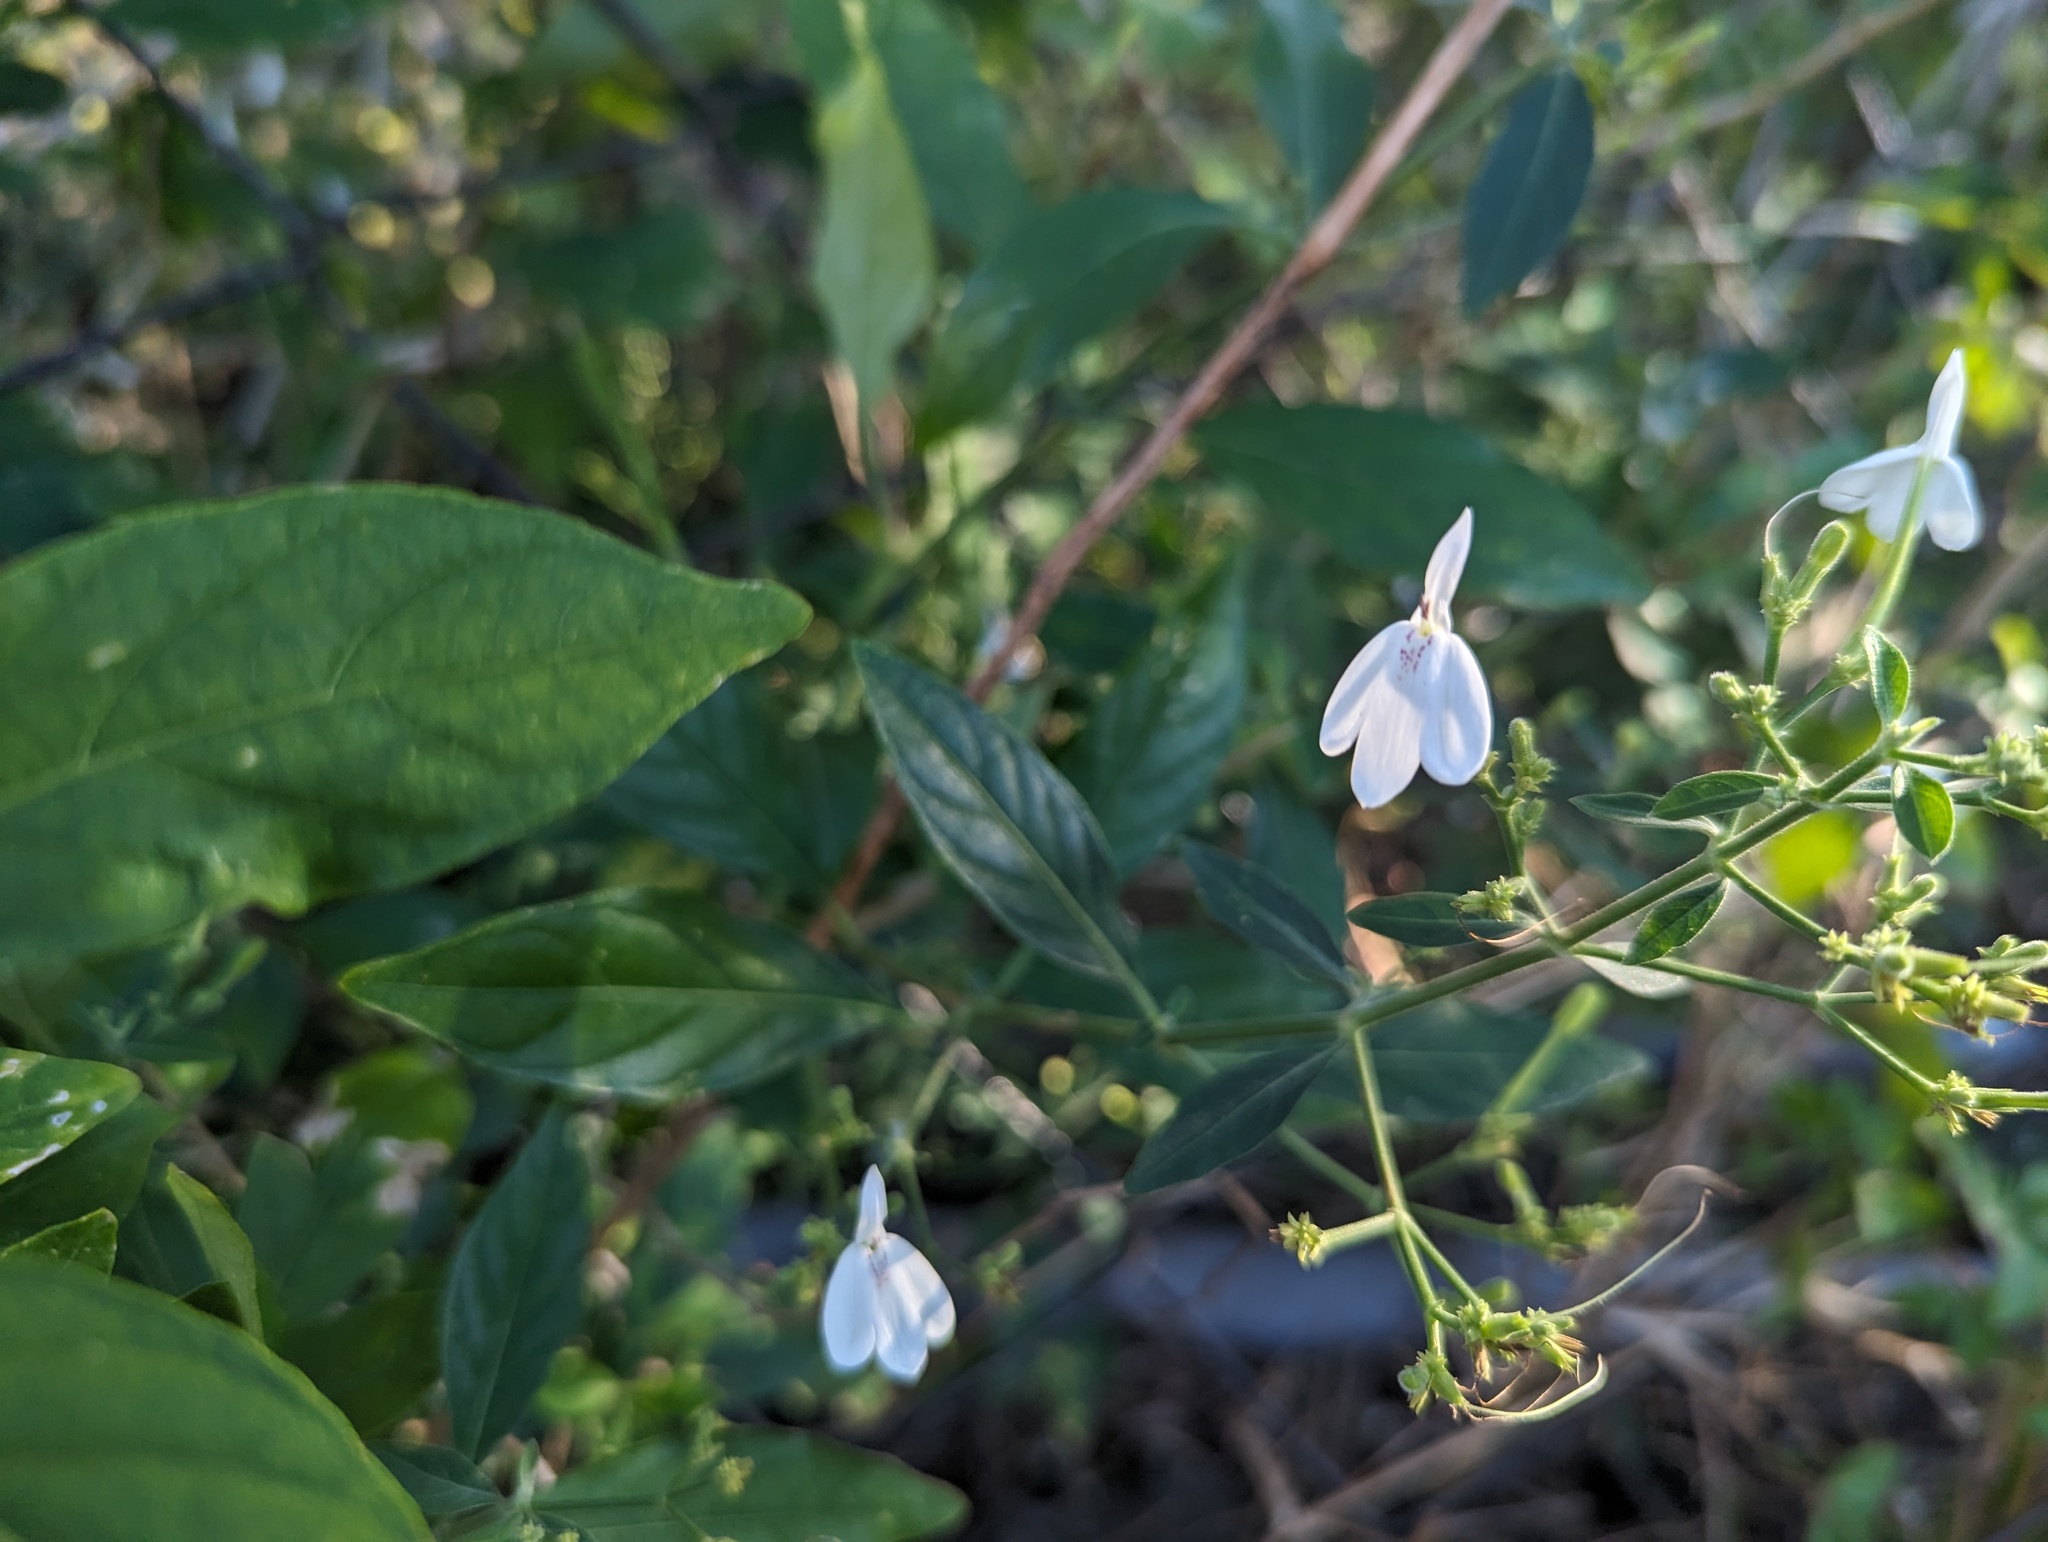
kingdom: Plantae
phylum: Tracheophyta
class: Magnoliopsida
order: Lamiales
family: Acanthaceae
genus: Rhinacanthus
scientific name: Rhinacanthus nasutus
